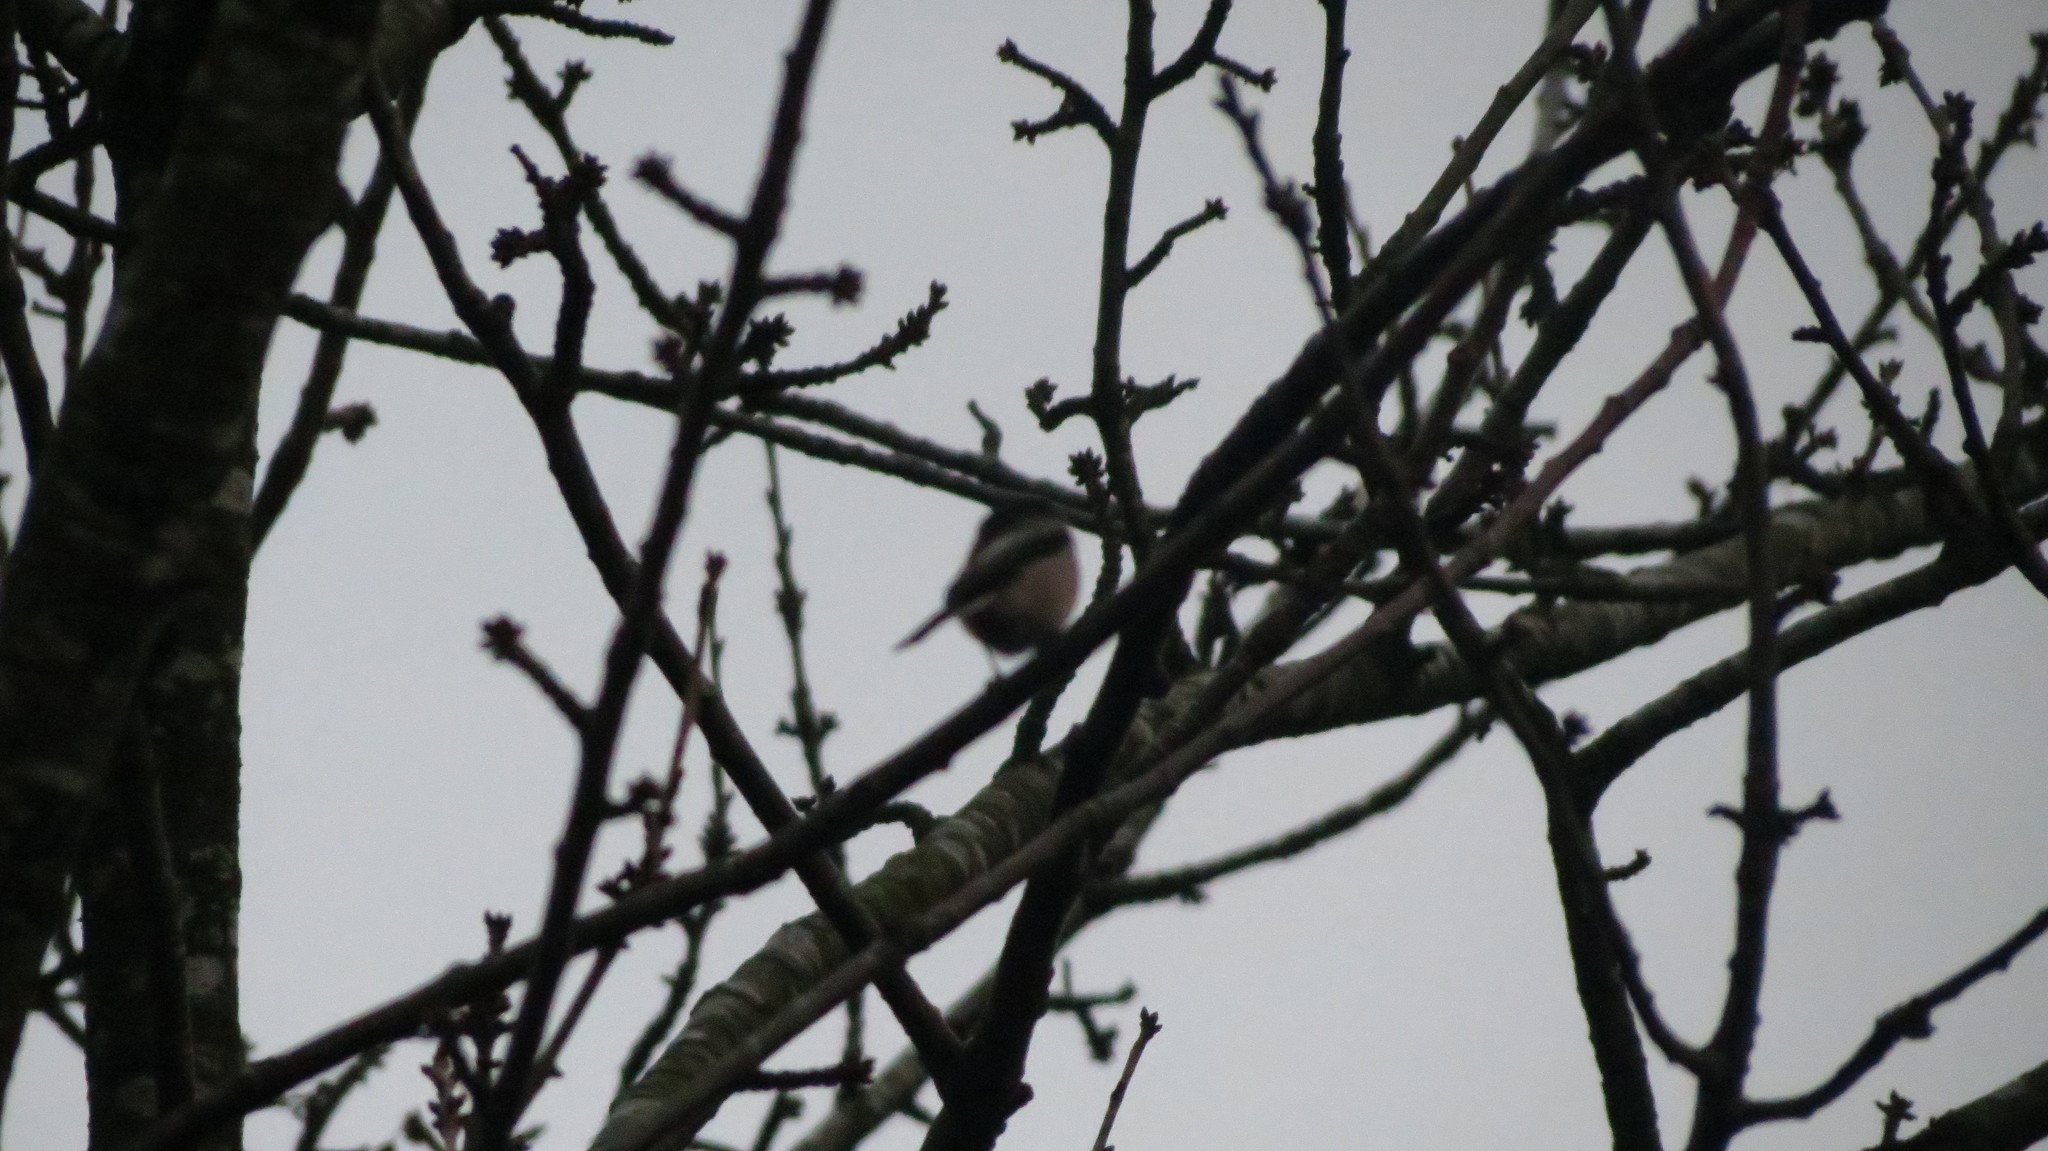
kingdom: Animalia
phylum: Chordata
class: Aves
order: Passeriformes
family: Aegithalidae
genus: Aegithalos
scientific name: Aegithalos caudatus
